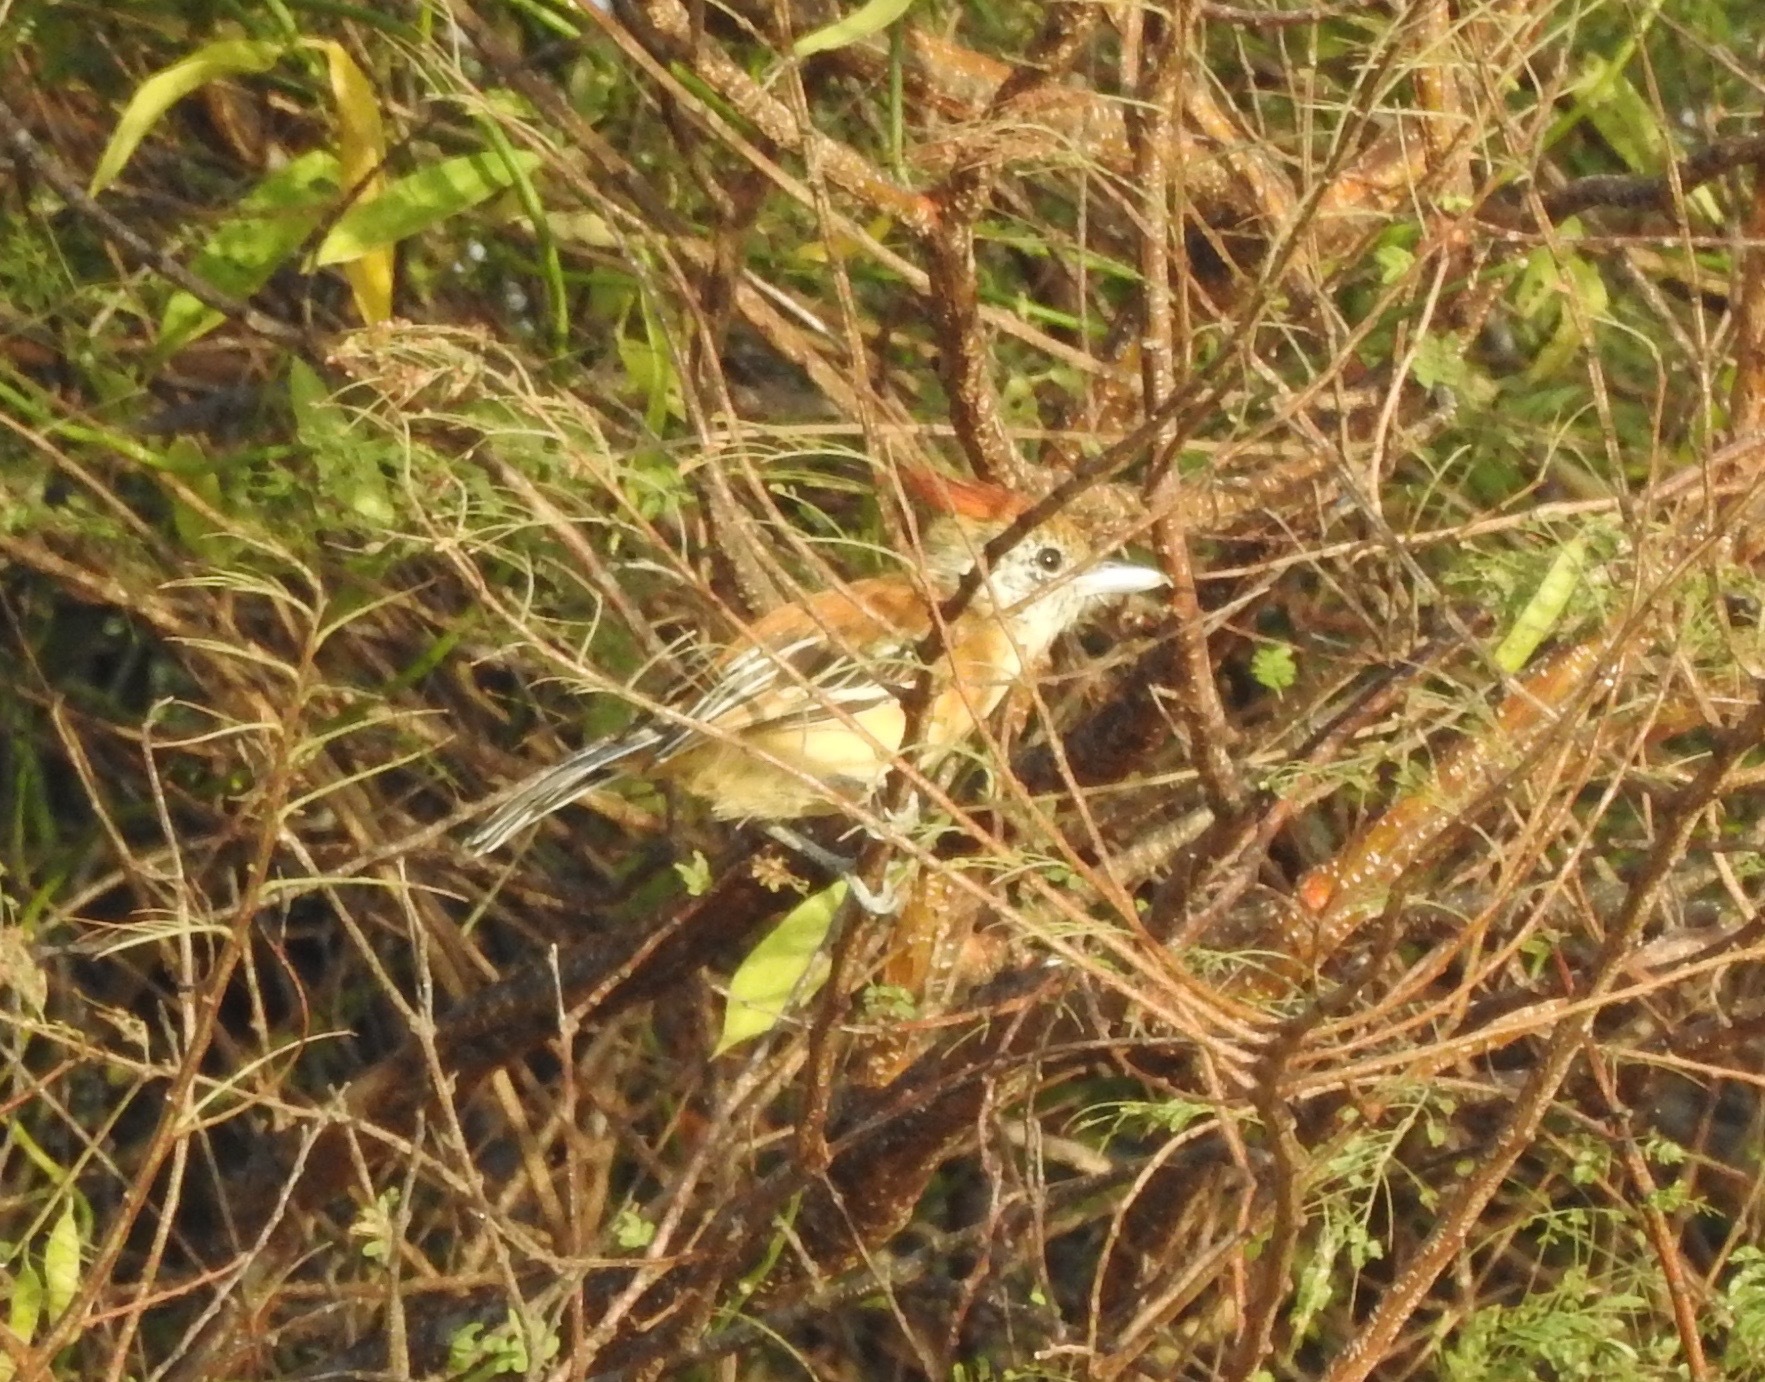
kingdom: Animalia
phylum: Chordata
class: Aves
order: Passeriformes
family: Thamnophilidae
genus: Sakesphorus
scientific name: Sakesphorus canadensis
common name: Black-crested antshrike
